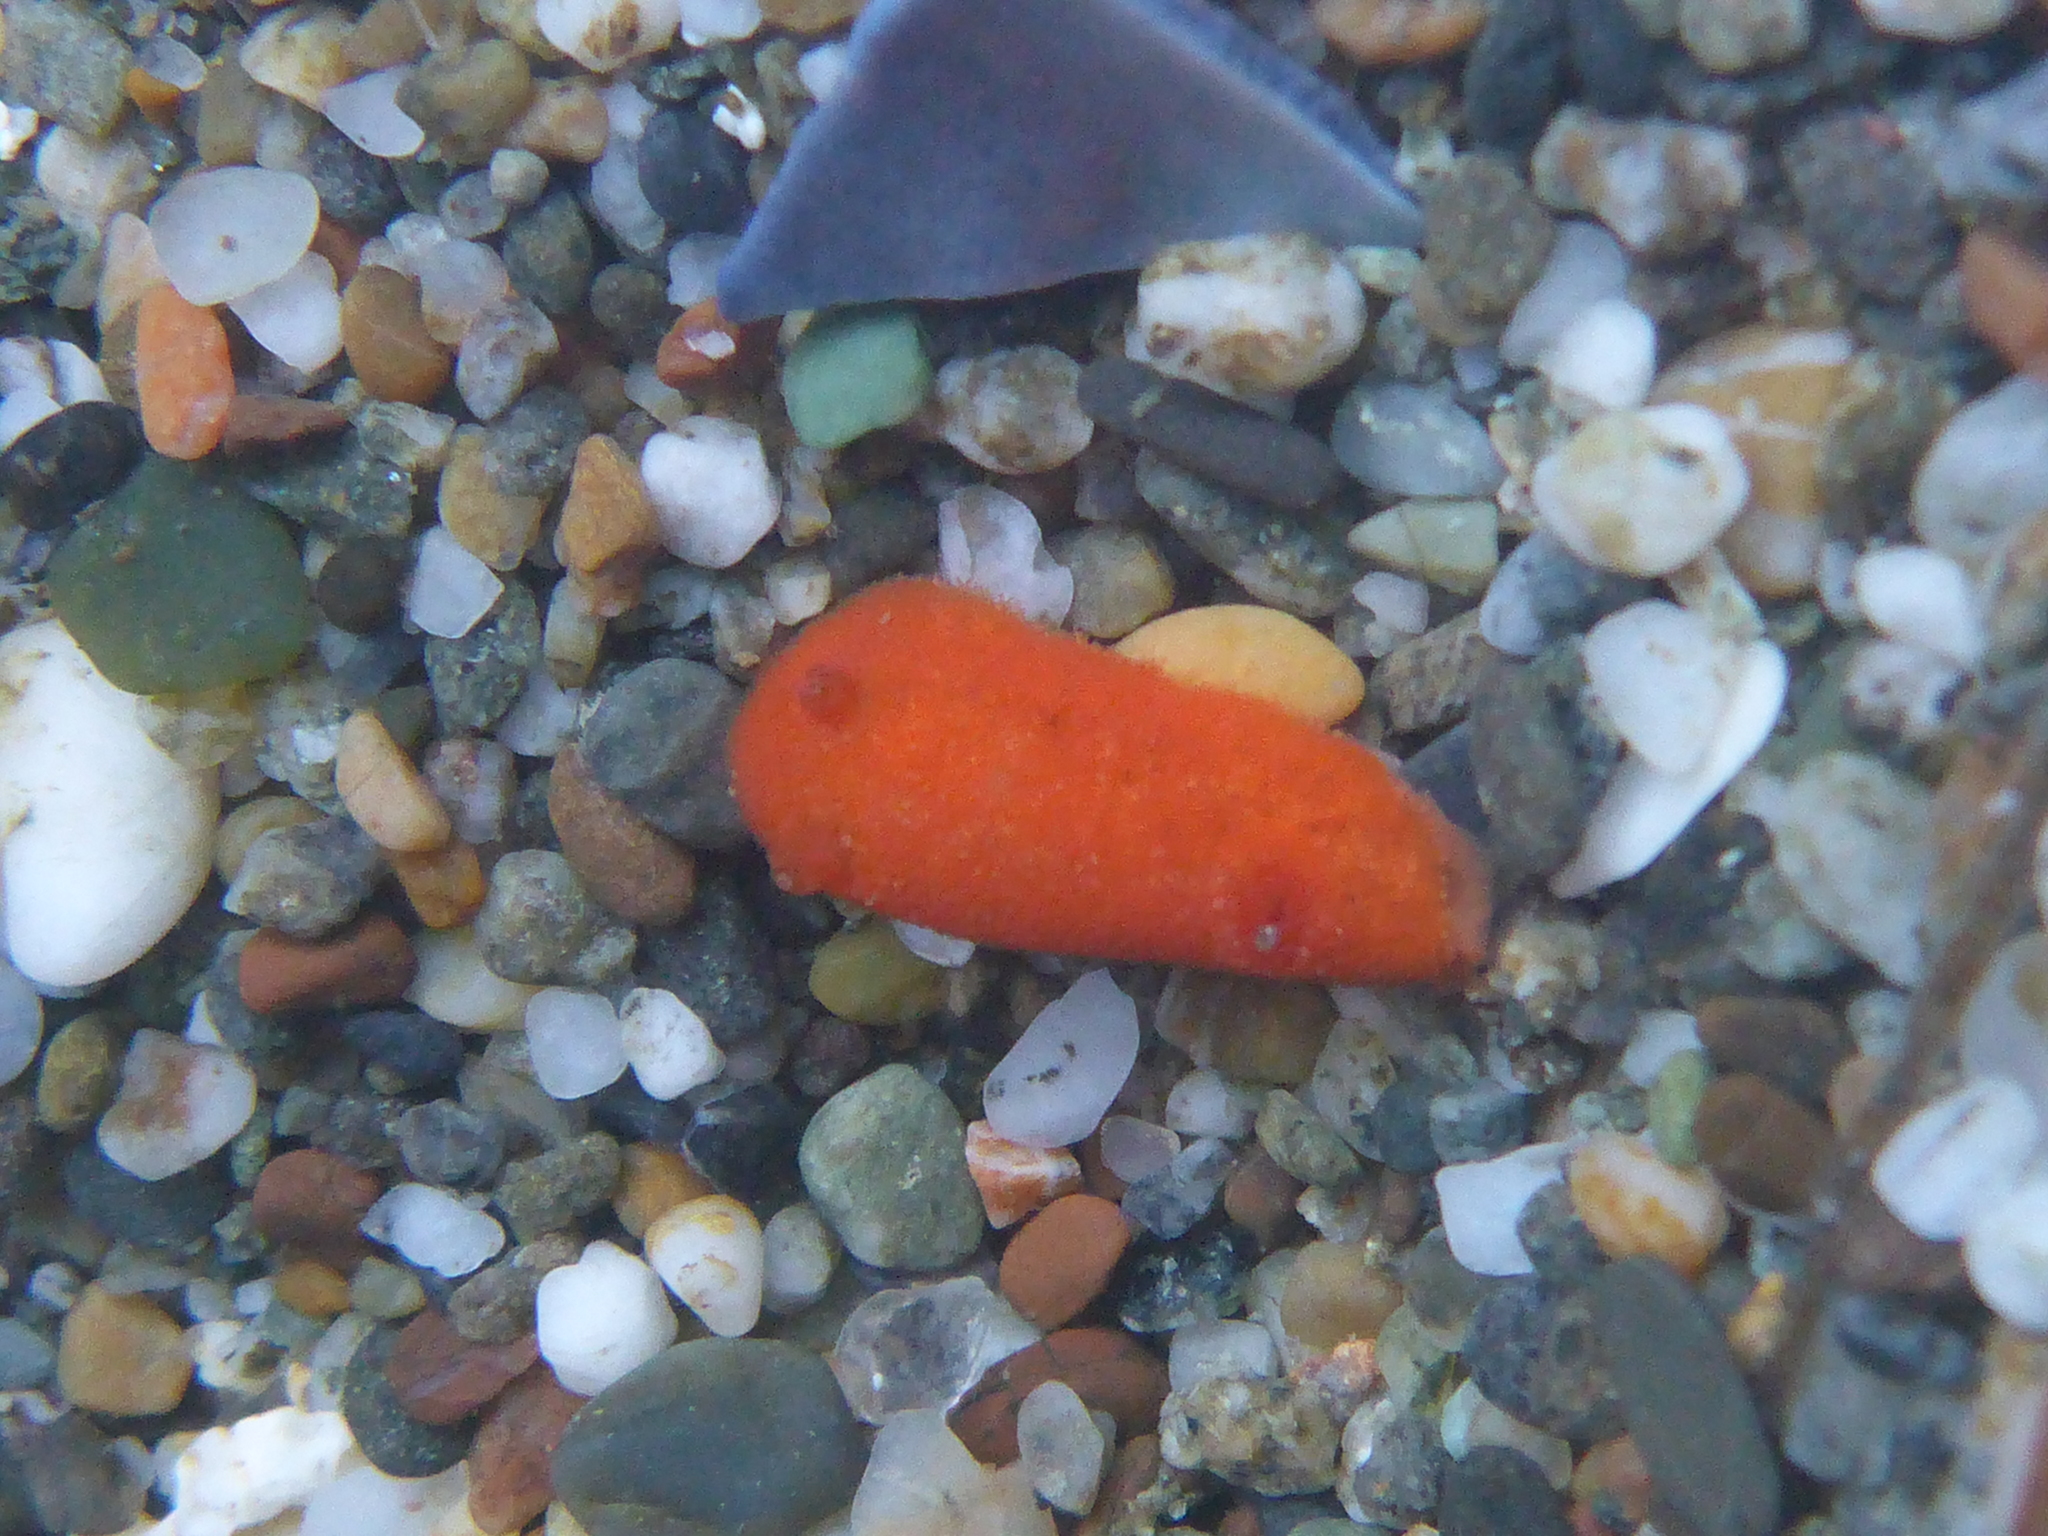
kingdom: Animalia
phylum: Mollusca
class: Gastropoda
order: Nudibranchia
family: Discodorididae
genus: Rostanga
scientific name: Rostanga pulchra
